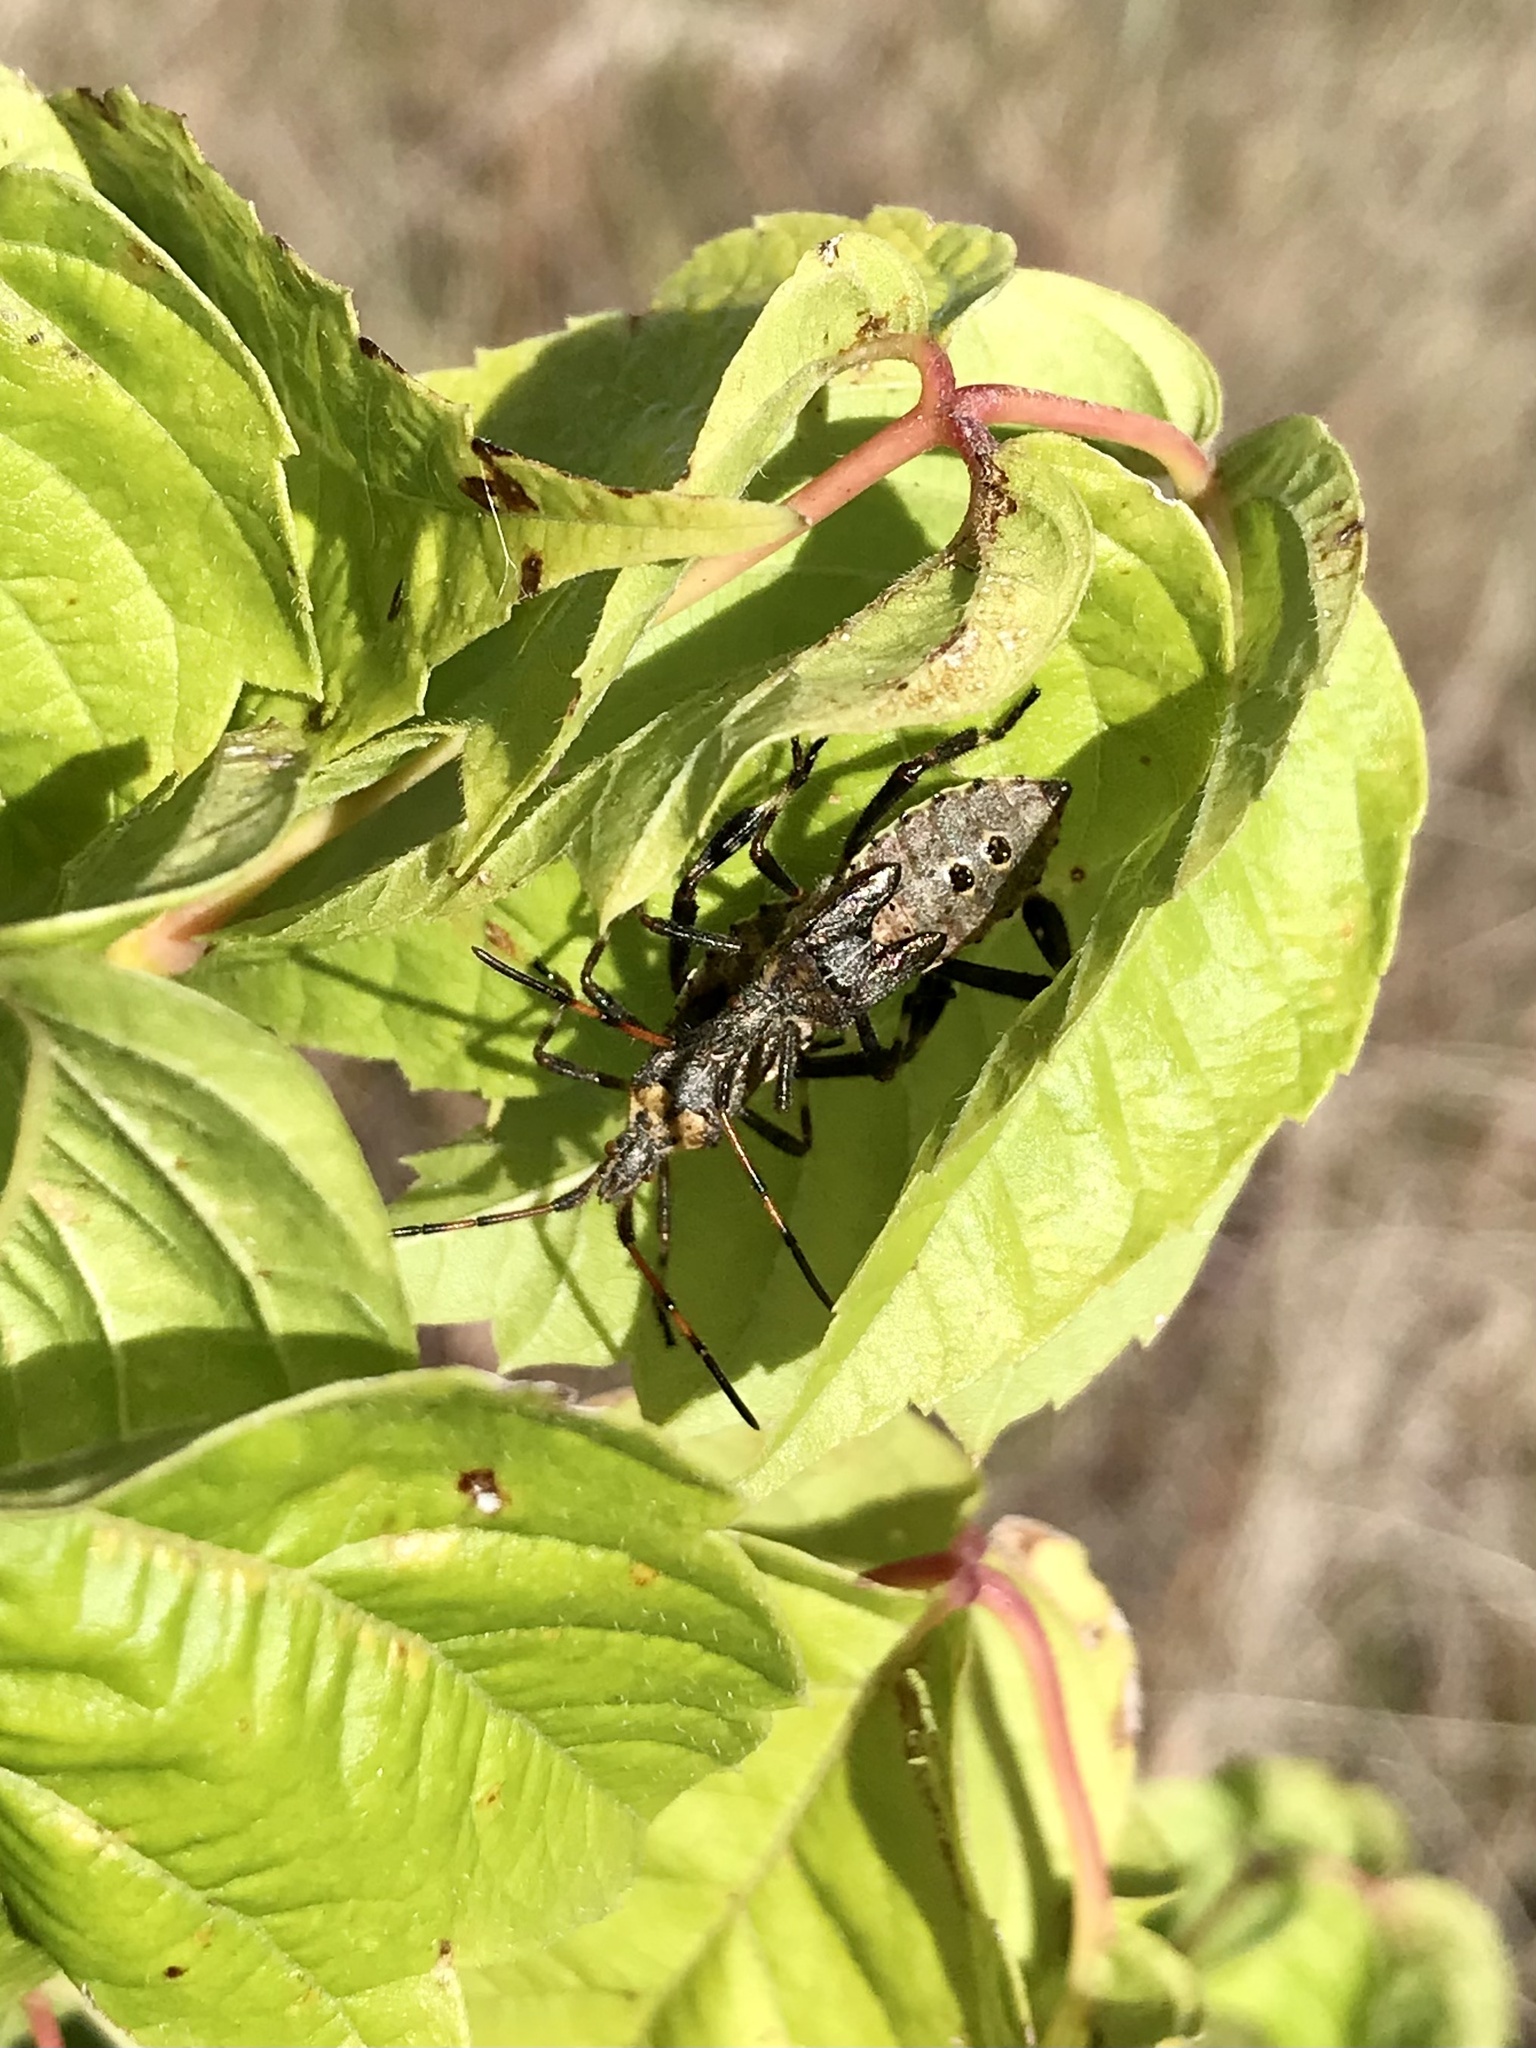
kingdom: Animalia
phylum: Arthropoda
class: Insecta
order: Hemiptera
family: Coreidae
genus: Leptoglossus
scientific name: Leptoglossus clypealis
